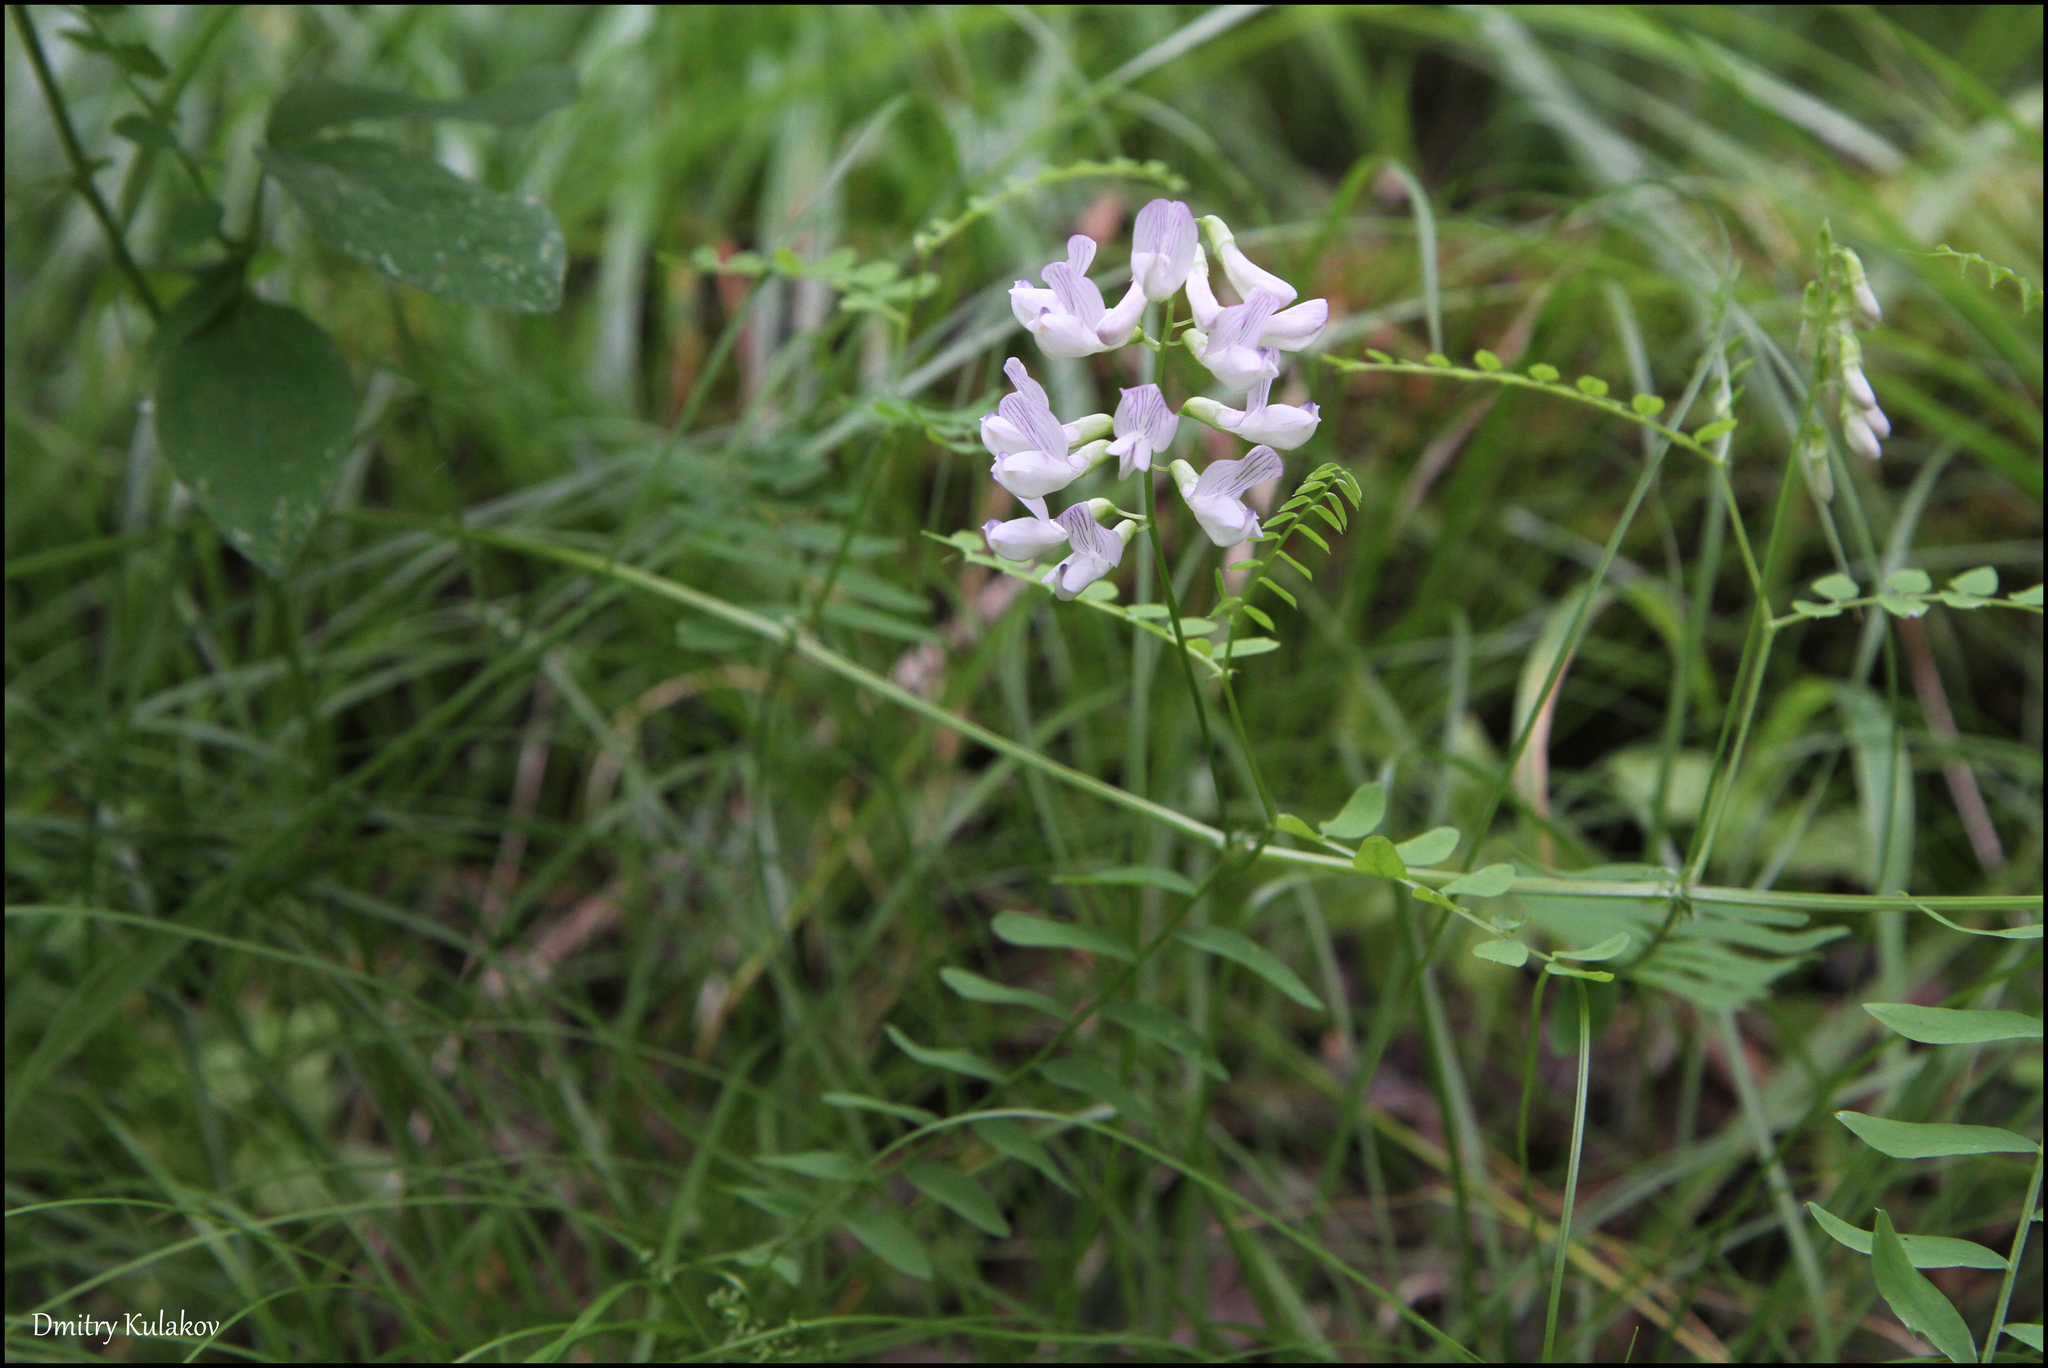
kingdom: Plantae
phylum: Tracheophyta
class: Magnoliopsida
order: Fabales
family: Fabaceae
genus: Vicia
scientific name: Vicia sylvatica
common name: Wood vetch
